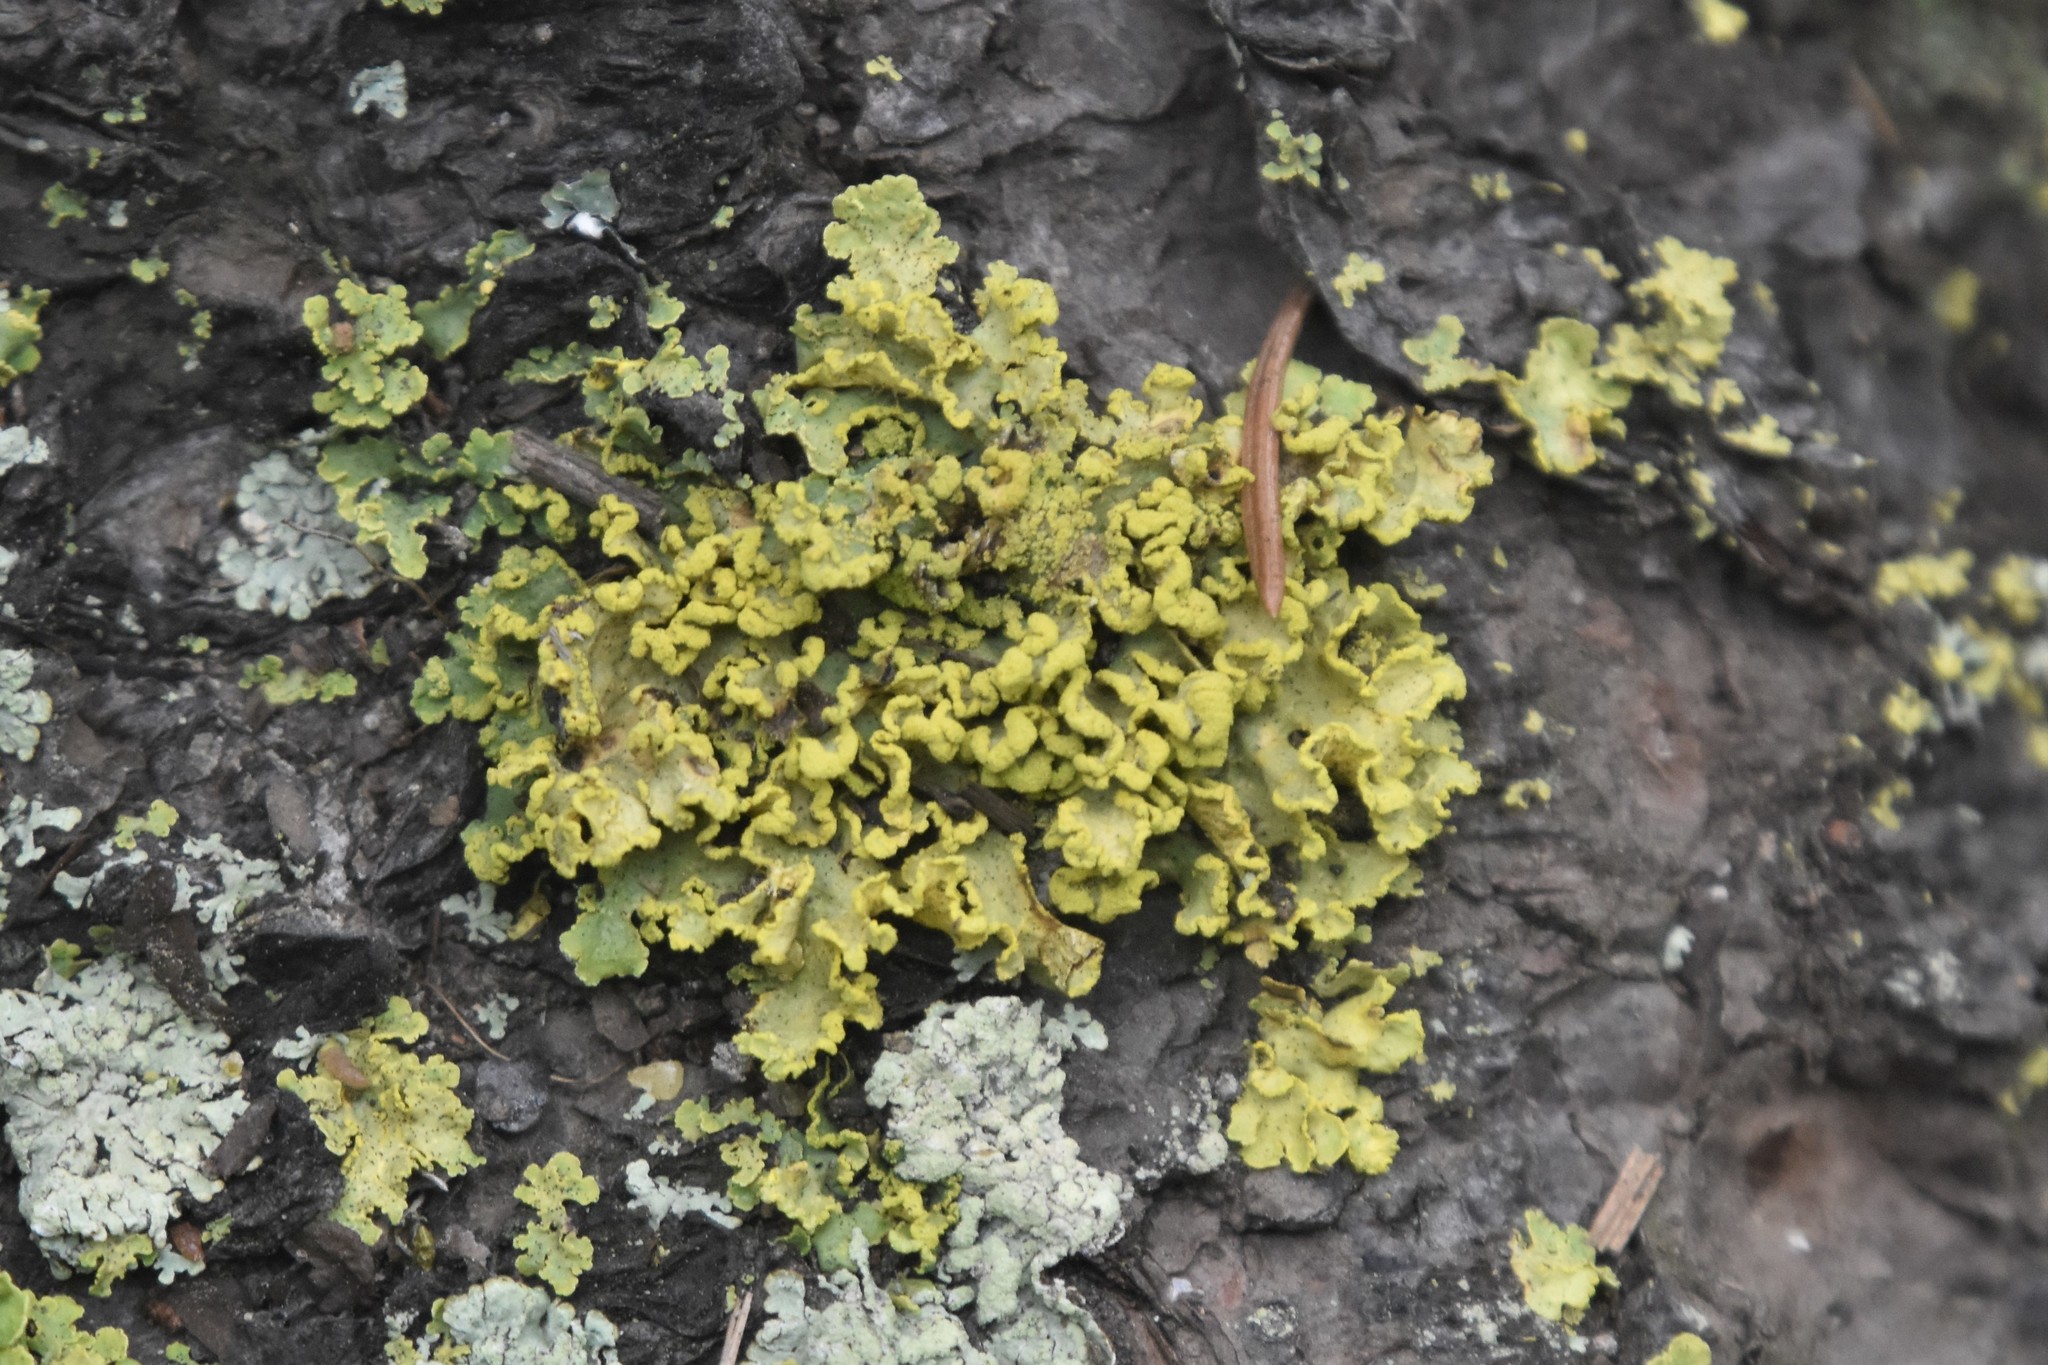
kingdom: Fungi
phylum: Ascomycota
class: Lecanoromycetes
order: Lecanorales
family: Parmeliaceae
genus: Vulpicida
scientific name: Vulpicida pinastri
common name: Powdered sunshine lichen
